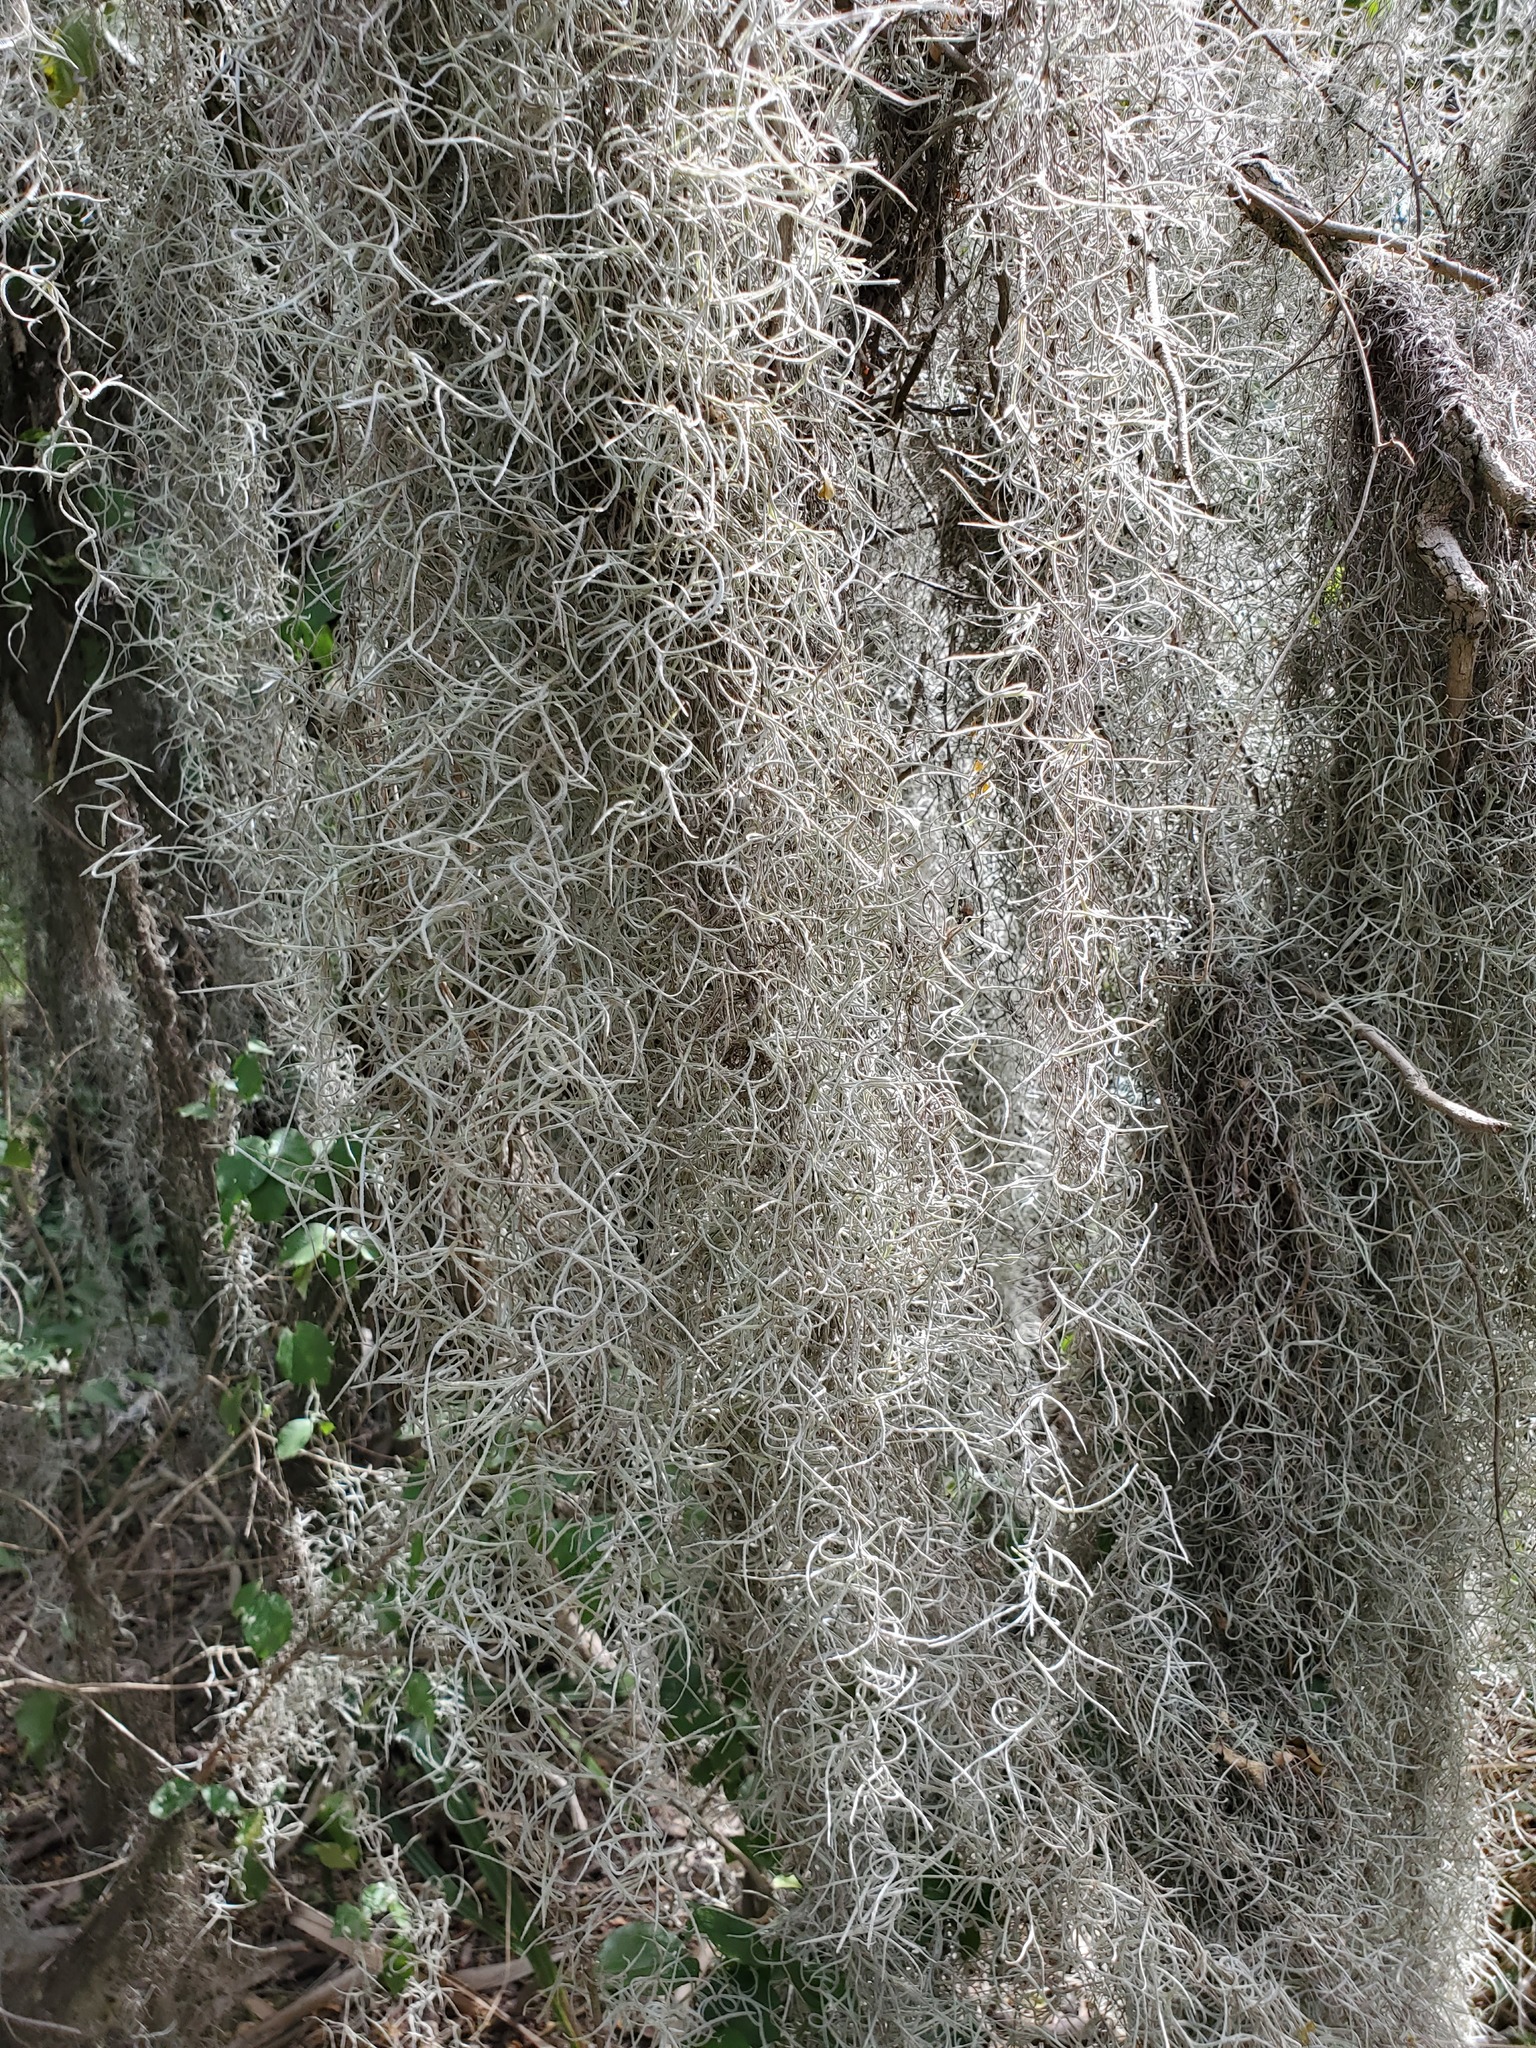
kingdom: Plantae
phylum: Tracheophyta
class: Liliopsida
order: Poales
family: Bromeliaceae
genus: Tillandsia
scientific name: Tillandsia usneoides
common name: Spanish moss
